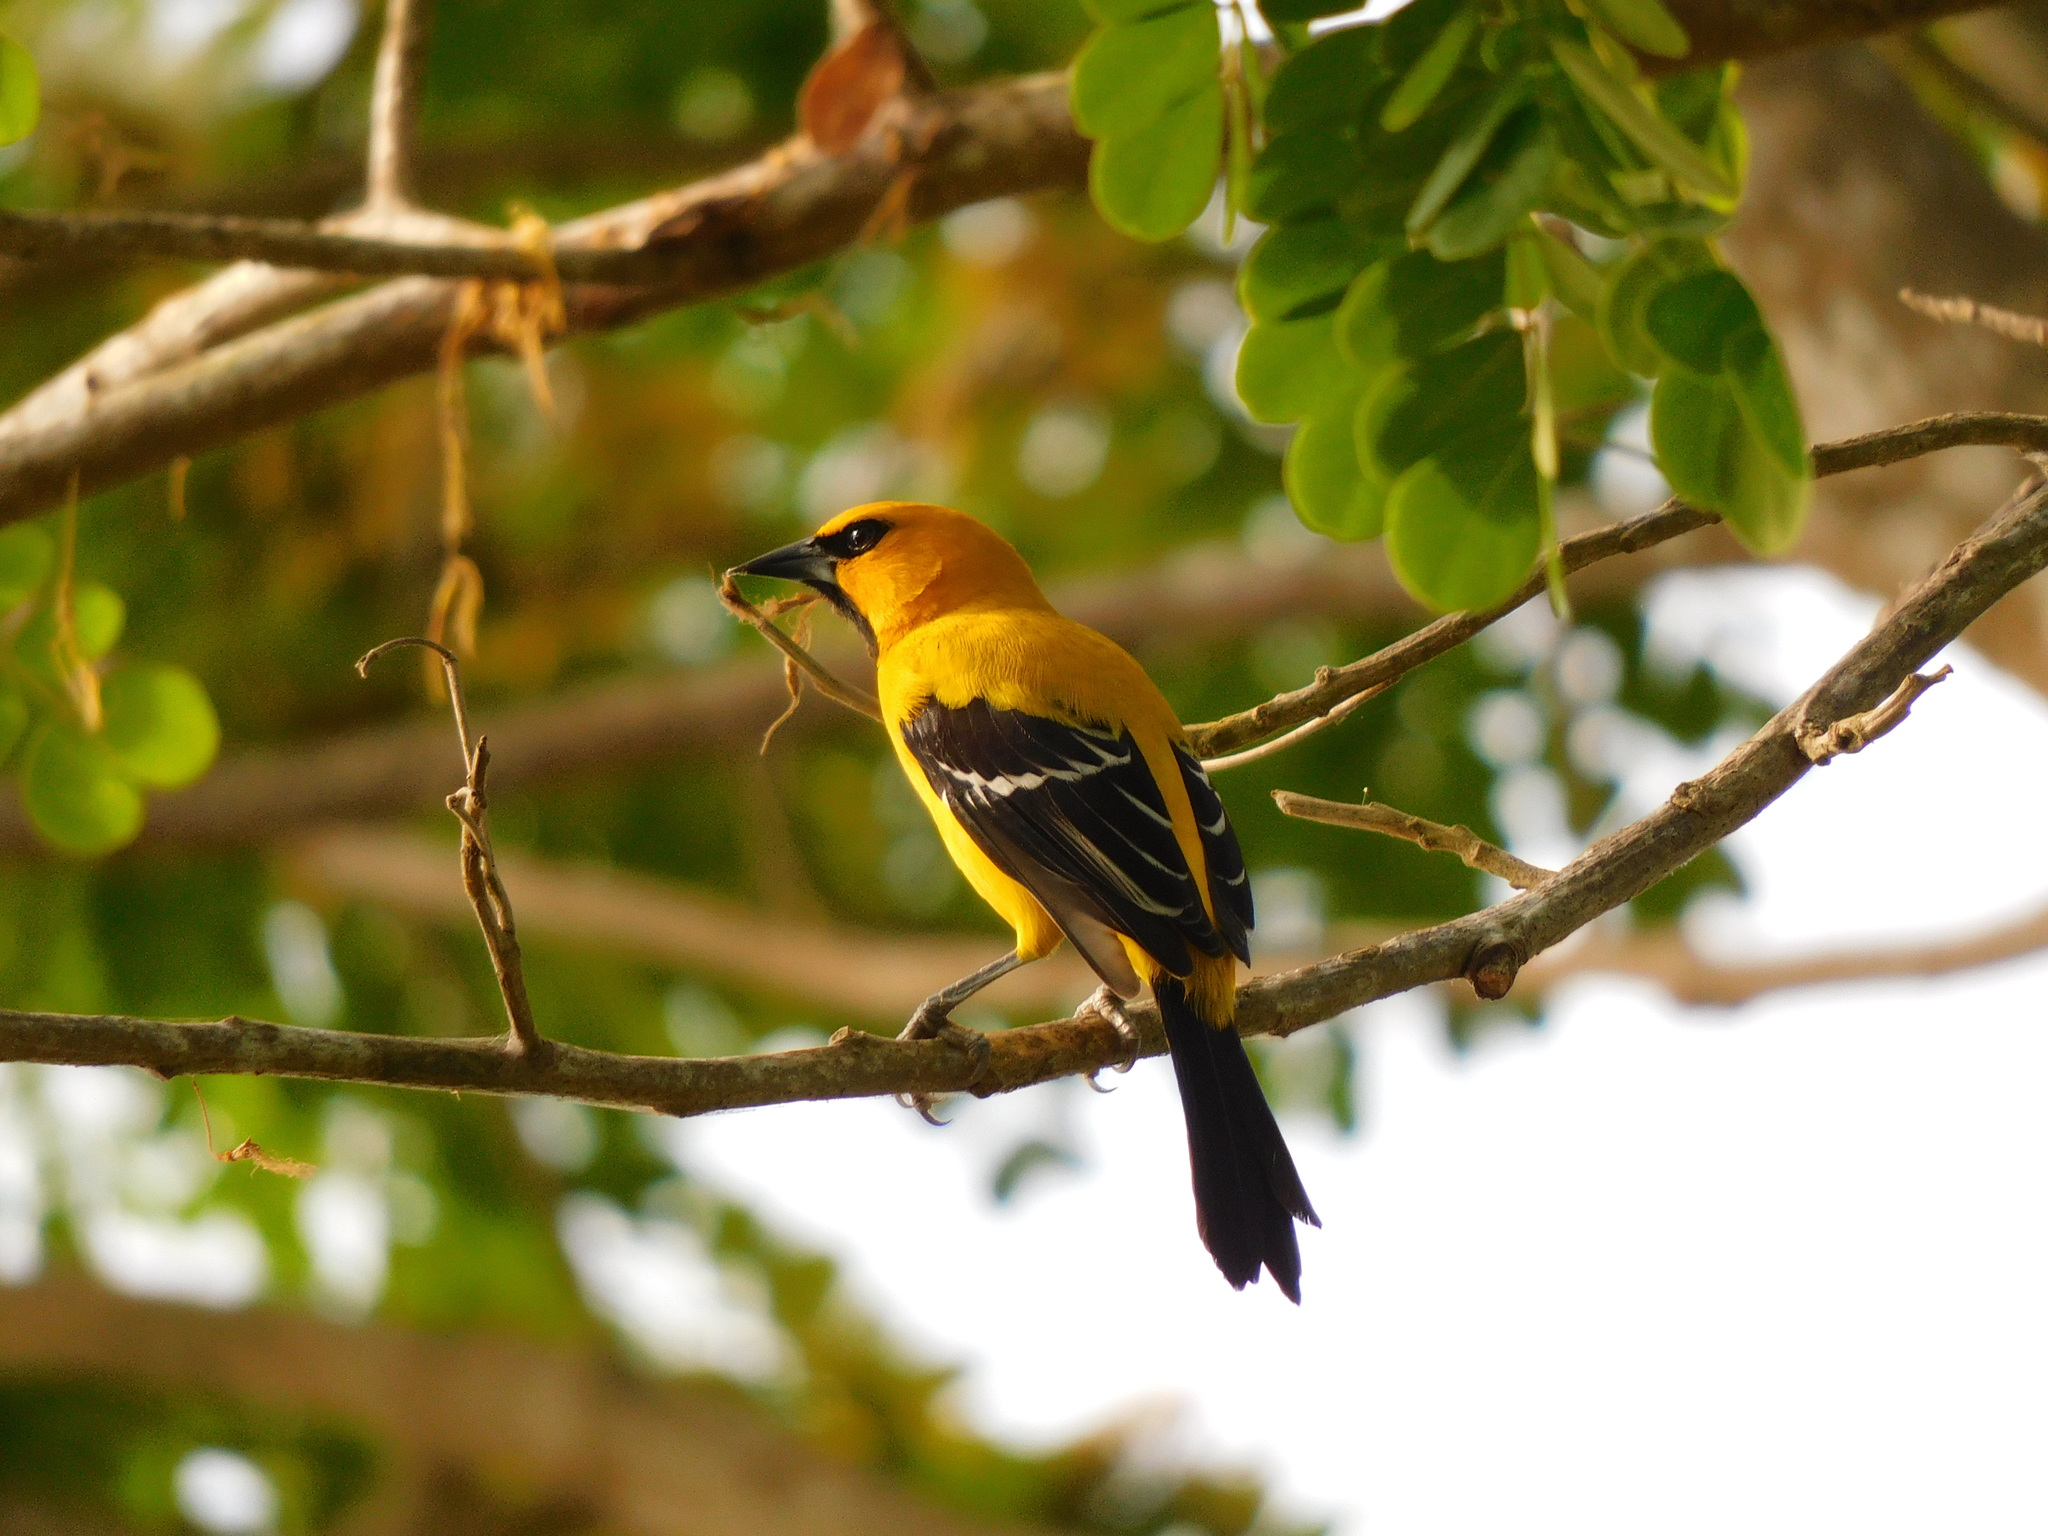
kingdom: Animalia
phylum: Chordata
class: Aves
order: Passeriformes
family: Icteridae
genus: Icterus
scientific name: Icterus nigrogularis
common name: Yellow oriole
